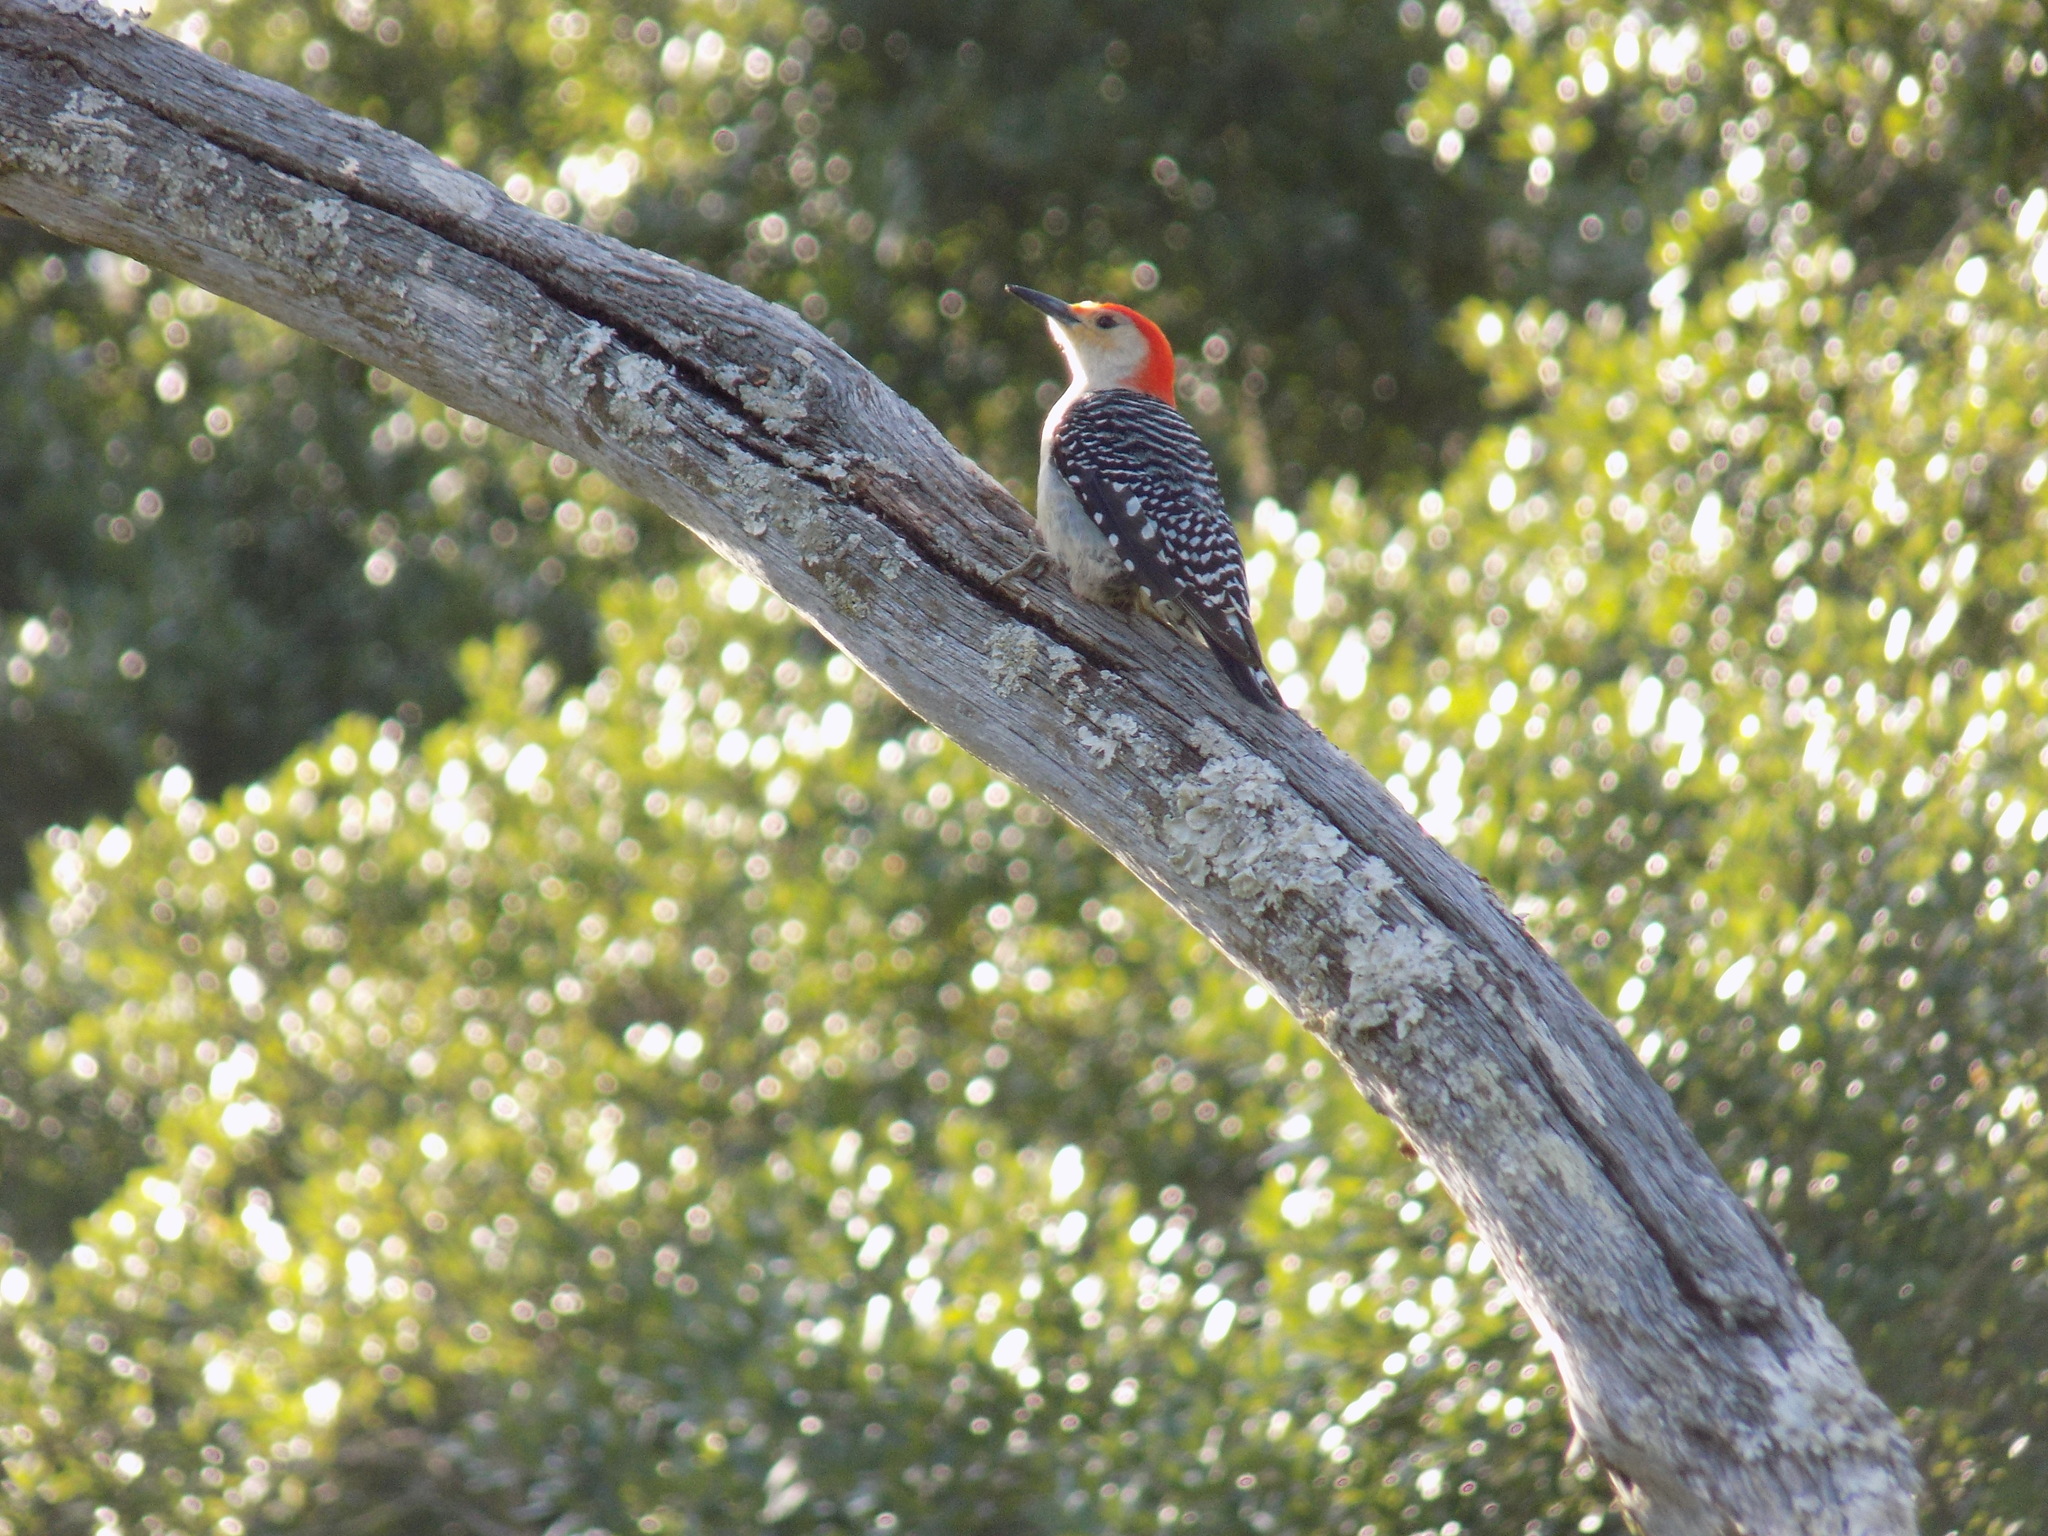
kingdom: Animalia
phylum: Chordata
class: Aves
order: Piciformes
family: Picidae
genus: Melanerpes
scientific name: Melanerpes carolinus
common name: Red-bellied woodpecker
